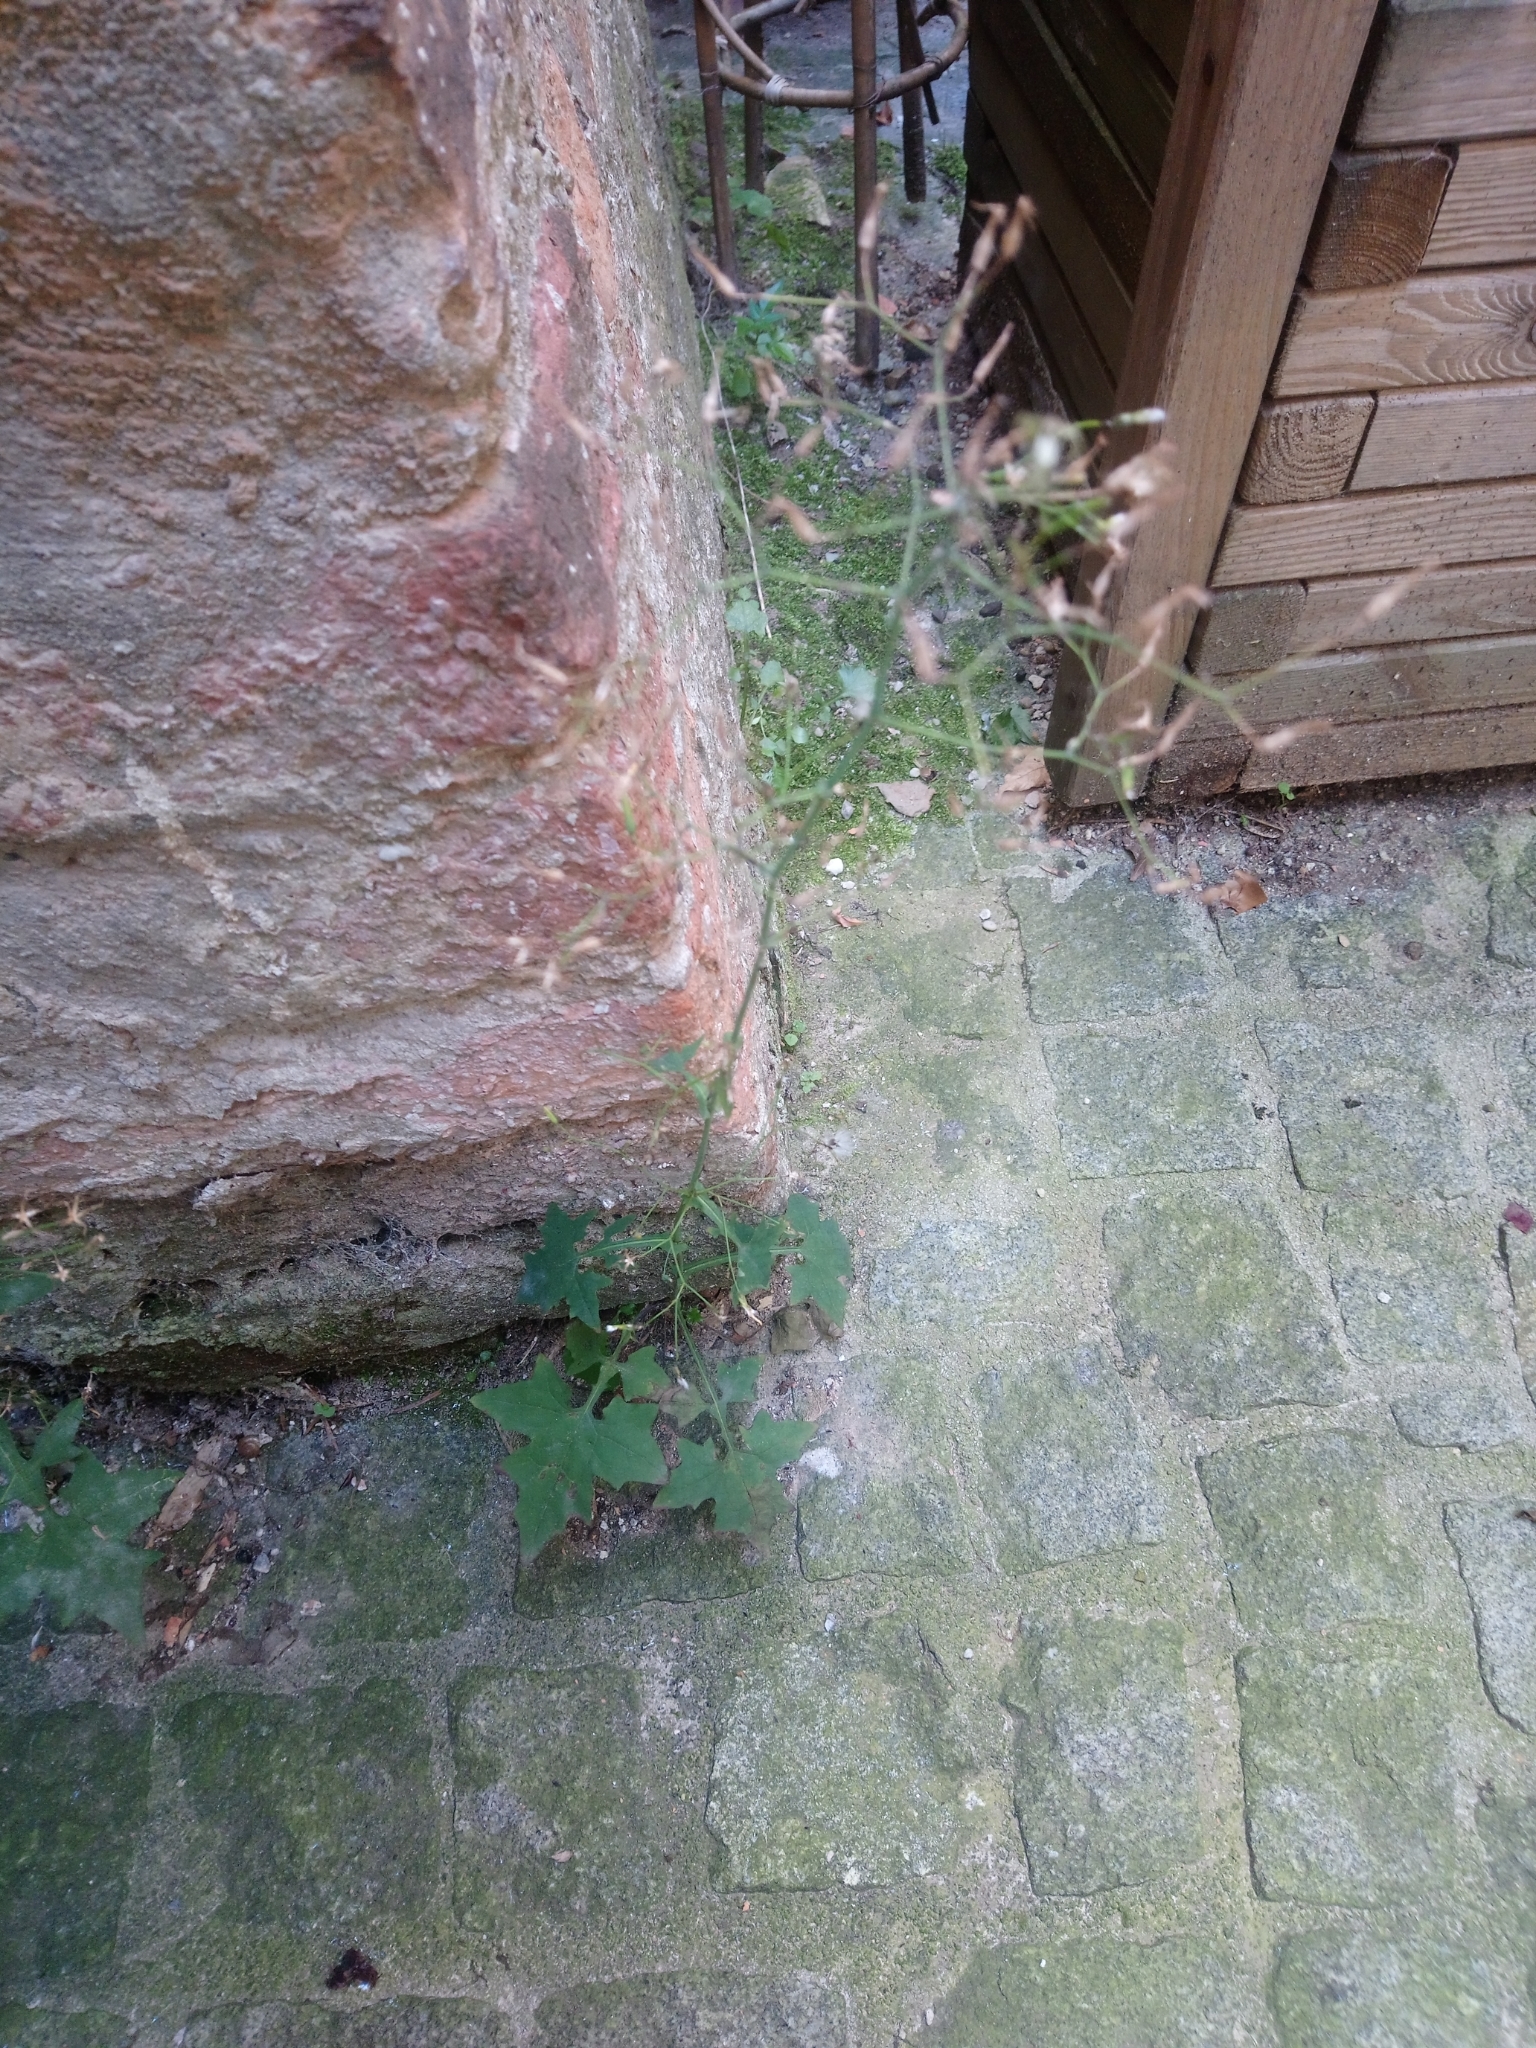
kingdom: Plantae
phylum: Tracheophyta
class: Magnoliopsida
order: Asterales
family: Asteraceae
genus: Mycelis
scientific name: Mycelis muralis
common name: Wall lettuce
